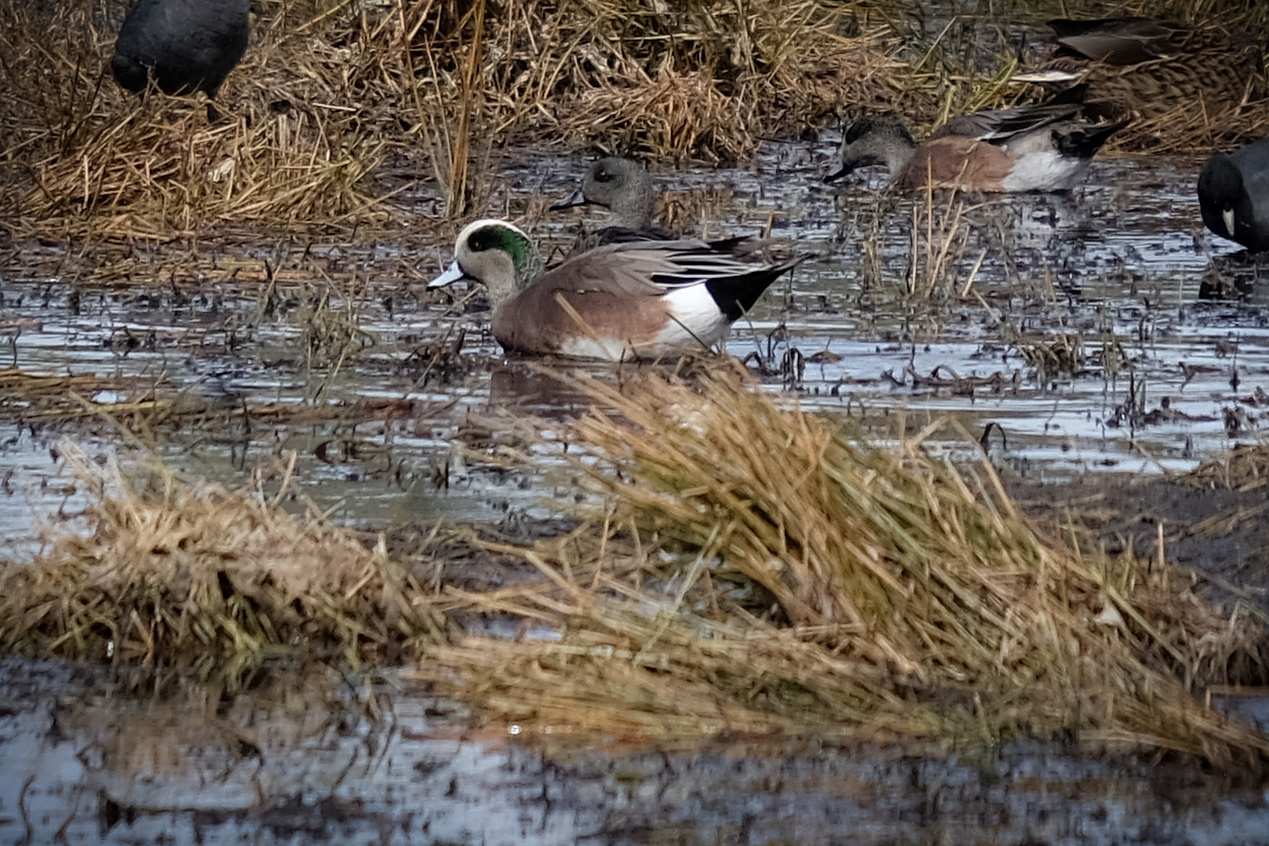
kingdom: Animalia
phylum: Chordata
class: Aves
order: Anseriformes
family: Anatidae
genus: Mareca
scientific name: Mareca americana
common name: American wigeon
